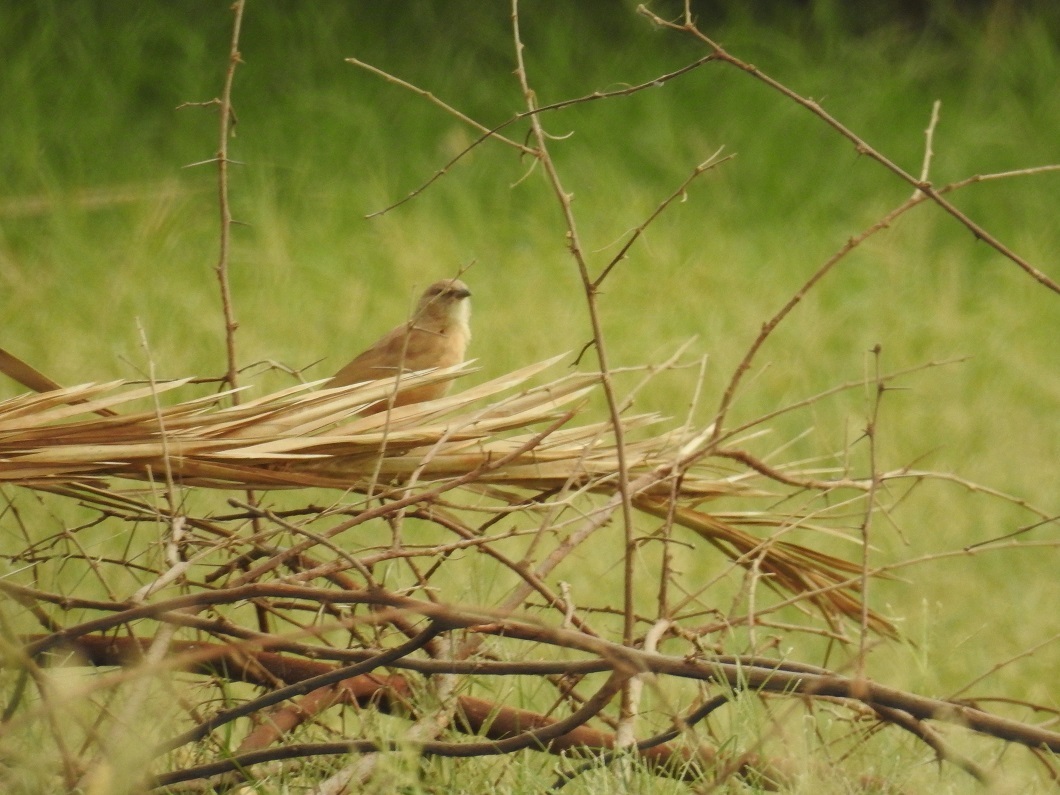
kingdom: Animalia
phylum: Chordata
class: Aves
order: Passeriformes
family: Leiothrichidae
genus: Turdoides
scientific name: Turdoides fulva
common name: Fulvous babbler
